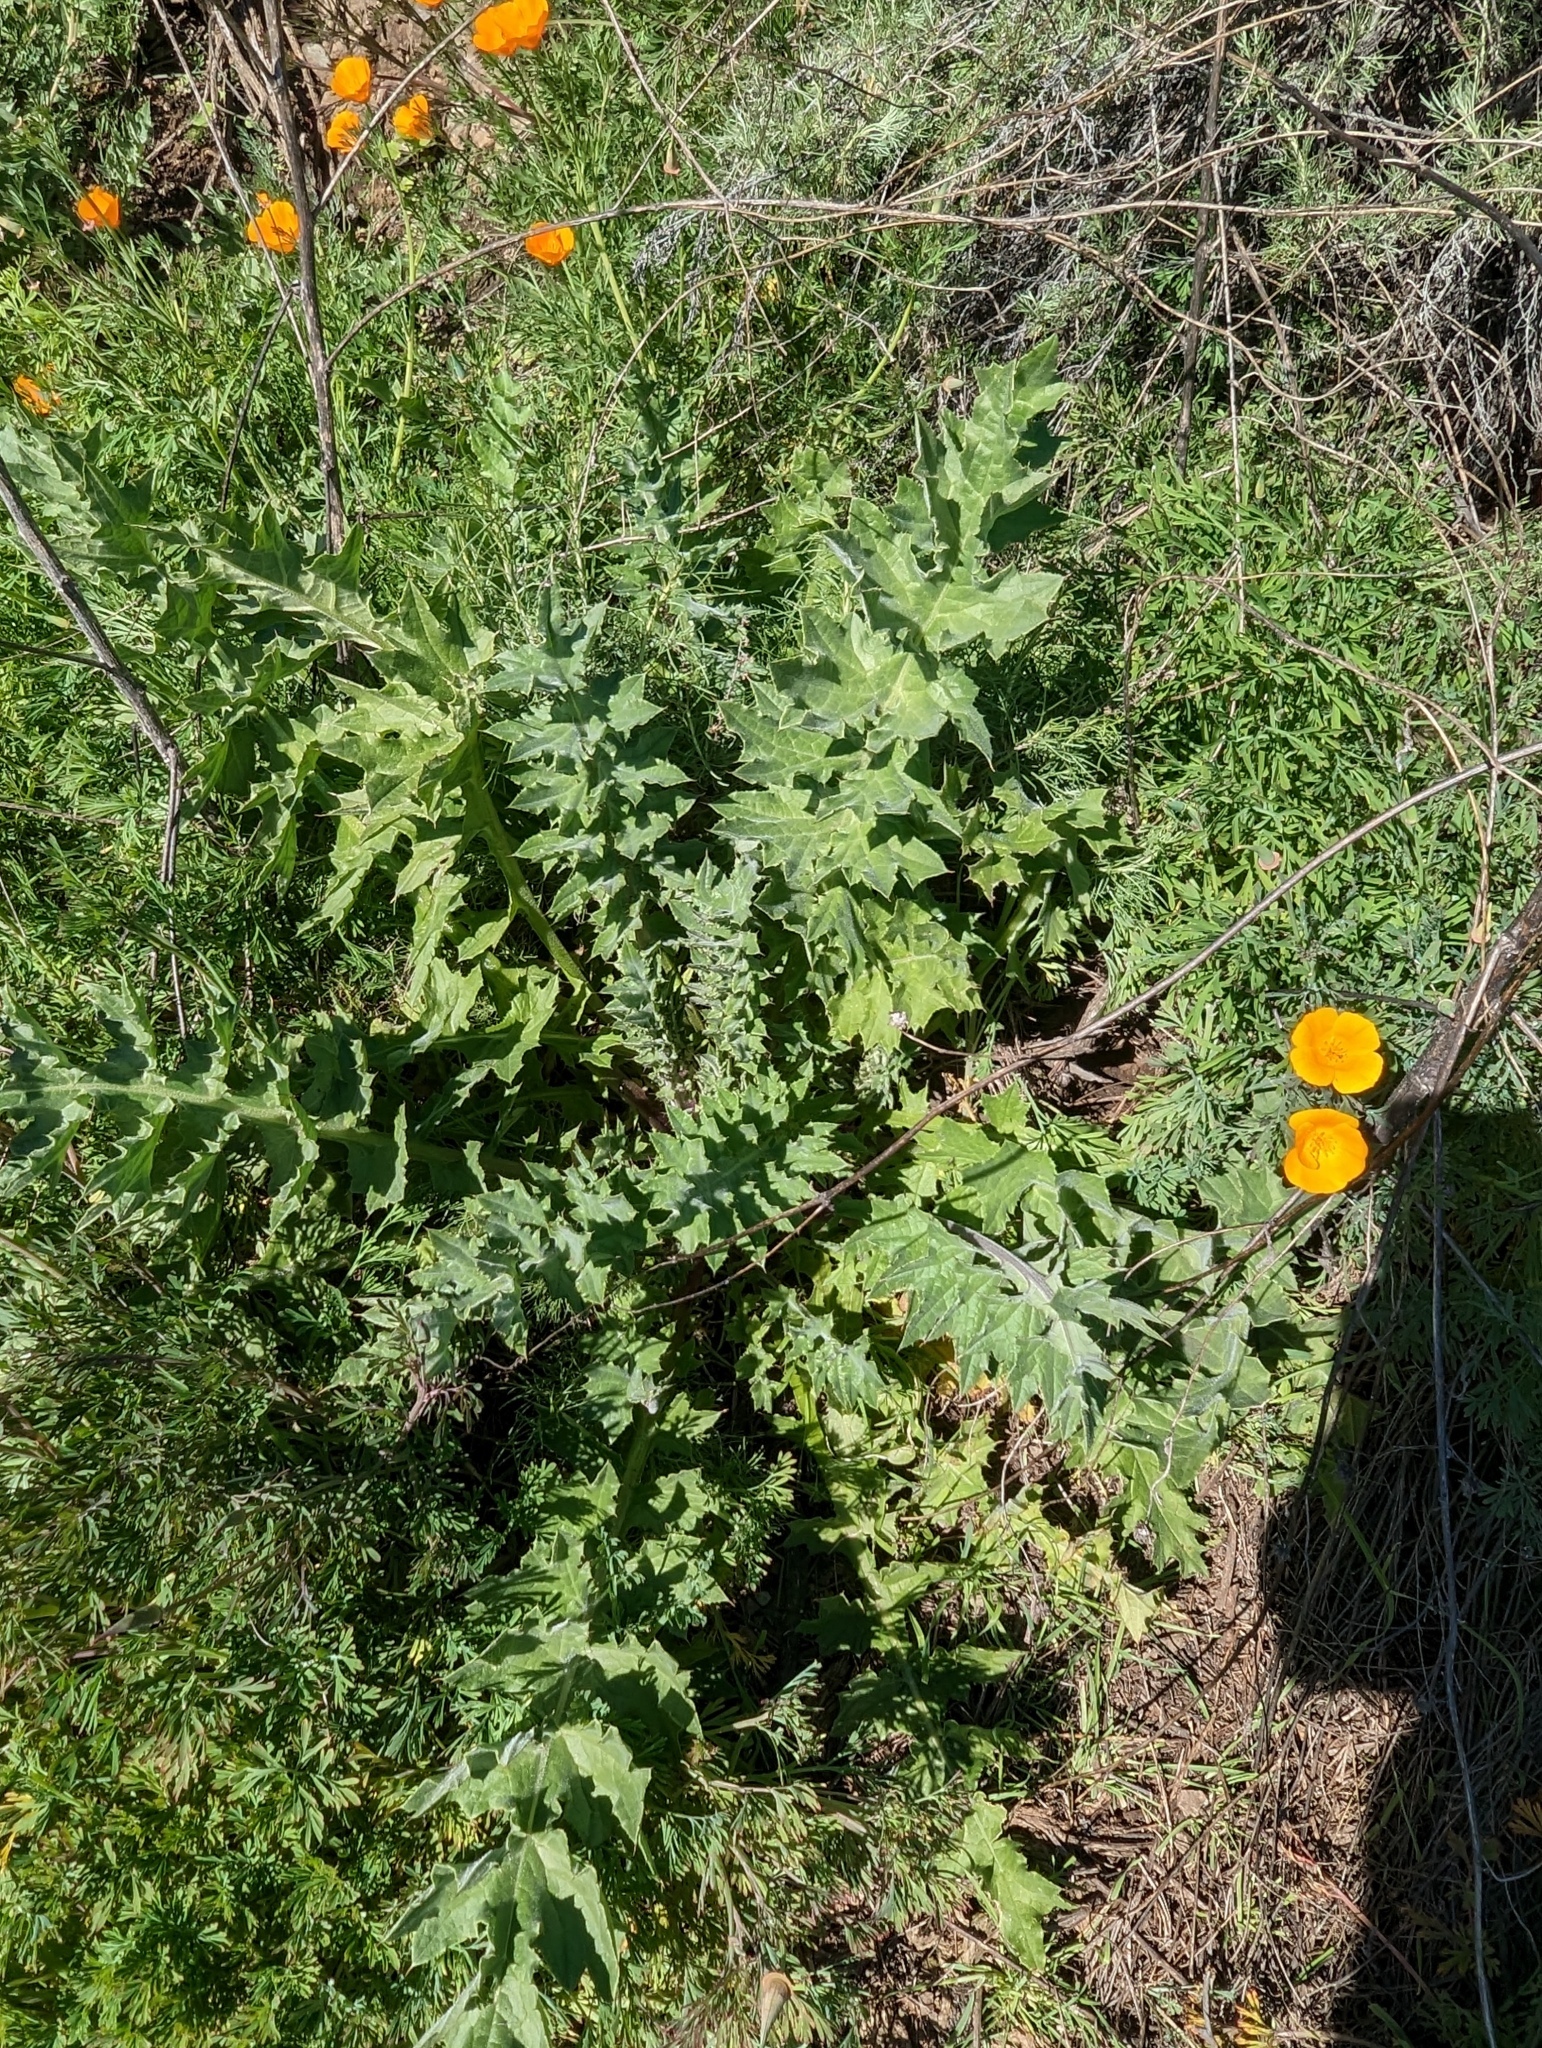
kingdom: Plantae
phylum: Tracheophyta
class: Magnoliopsida
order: Asterales
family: Asteraceae
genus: Cirsium
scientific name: Cirsium fontinale
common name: Fountain thistle
